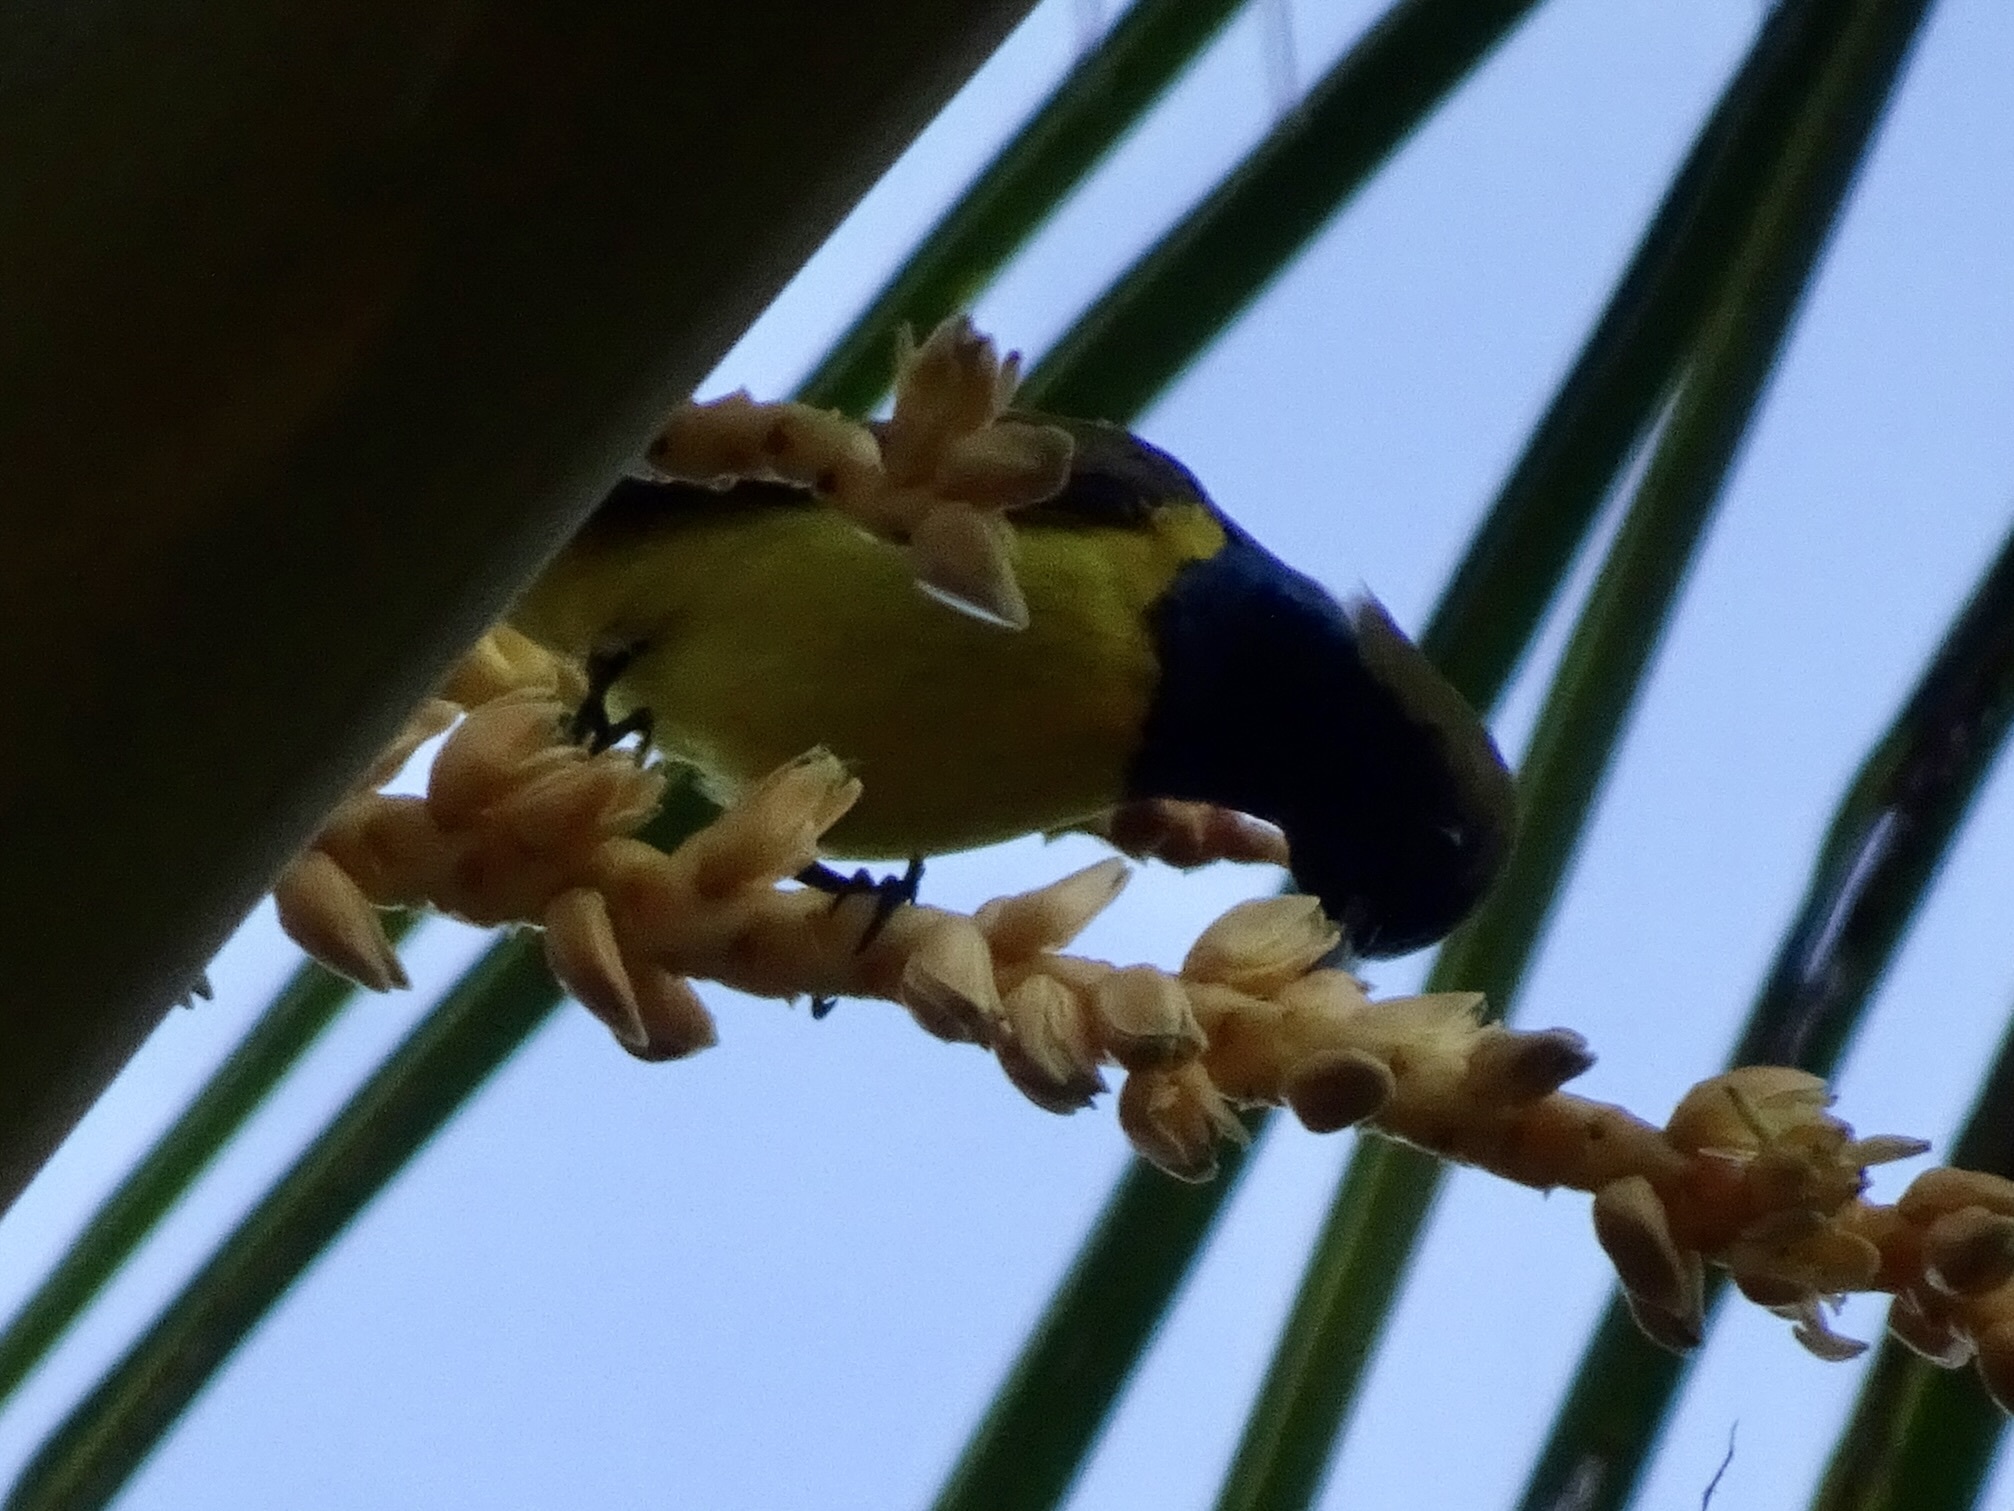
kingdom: Animalia
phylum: Chordata
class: Aves
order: Passeriformes
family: Nectariniidae
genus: Cinnyris
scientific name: Cinnyris
